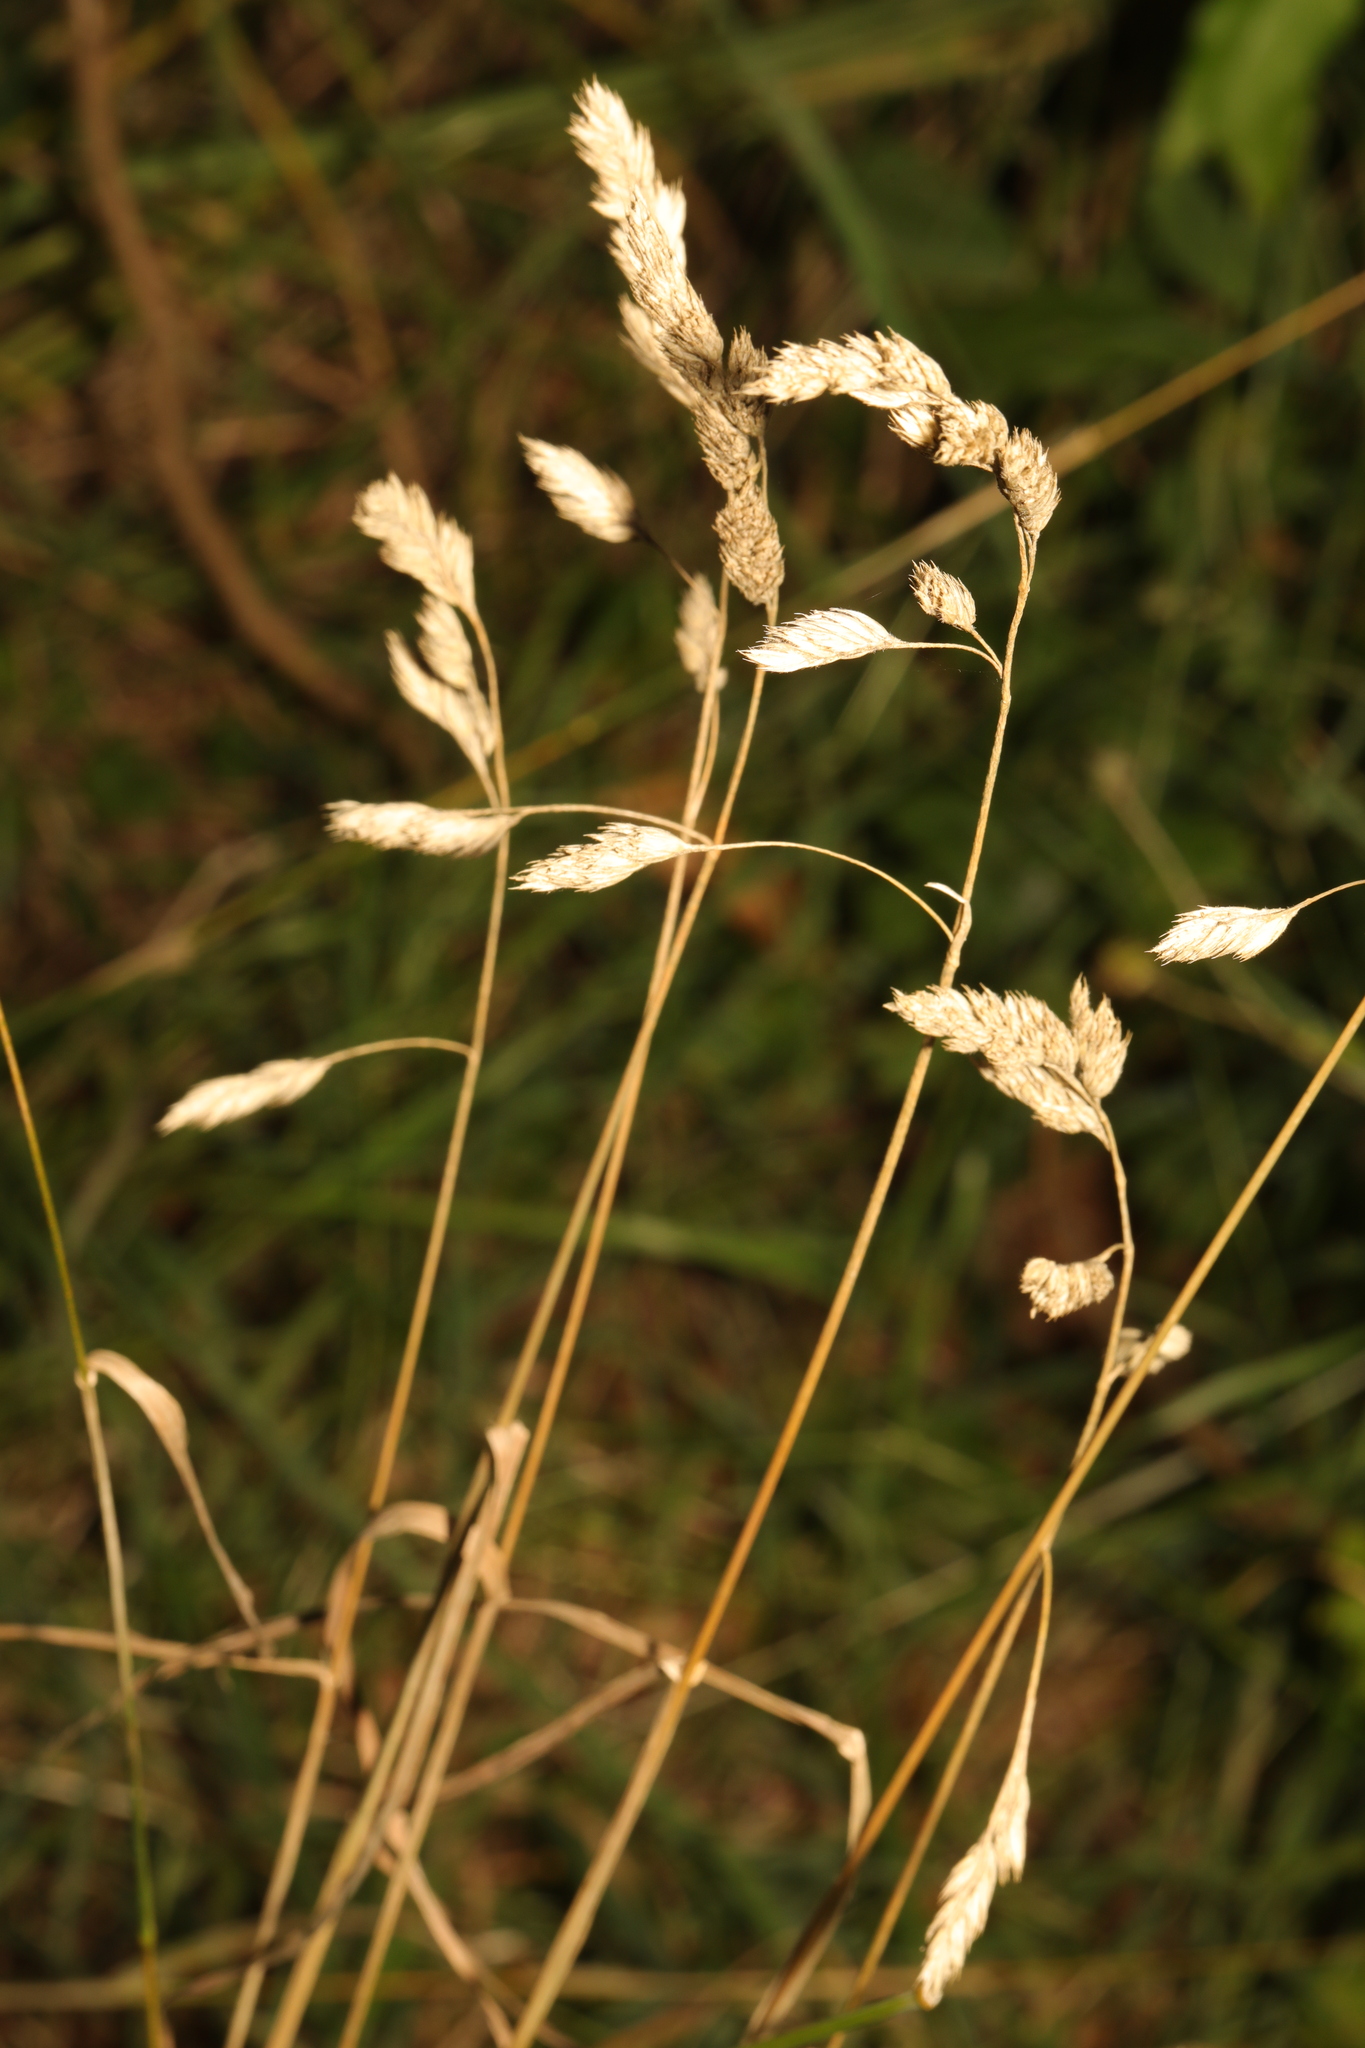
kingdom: Plantae
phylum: Tracheophyta
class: Liliopsida
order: Poales
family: Poaceae
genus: Dactylis
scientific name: Dactylis glomerata
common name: Orchardgrass
